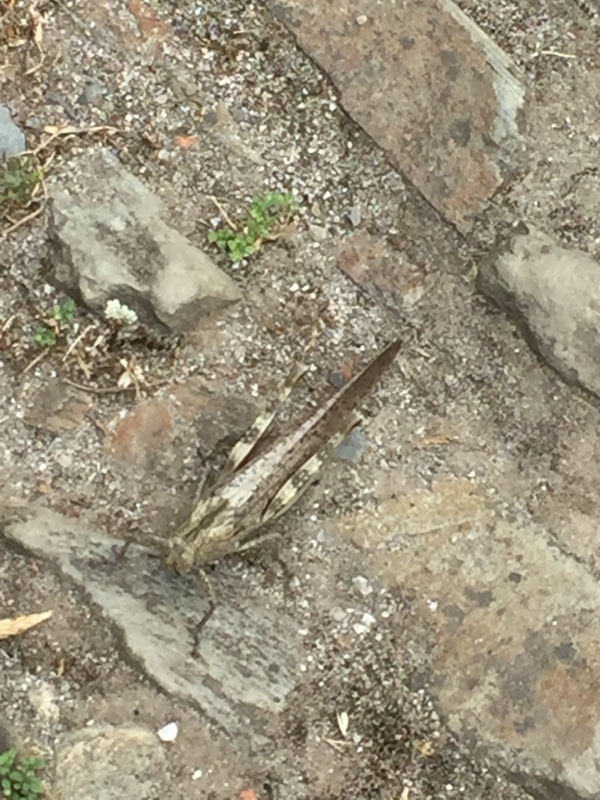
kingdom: Animalia
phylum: Arthropoda
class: Insecta
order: Orthoptera
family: Acrididae
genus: Anacridium
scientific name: Anacridium aegyptium
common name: Egyptian grasshopper
